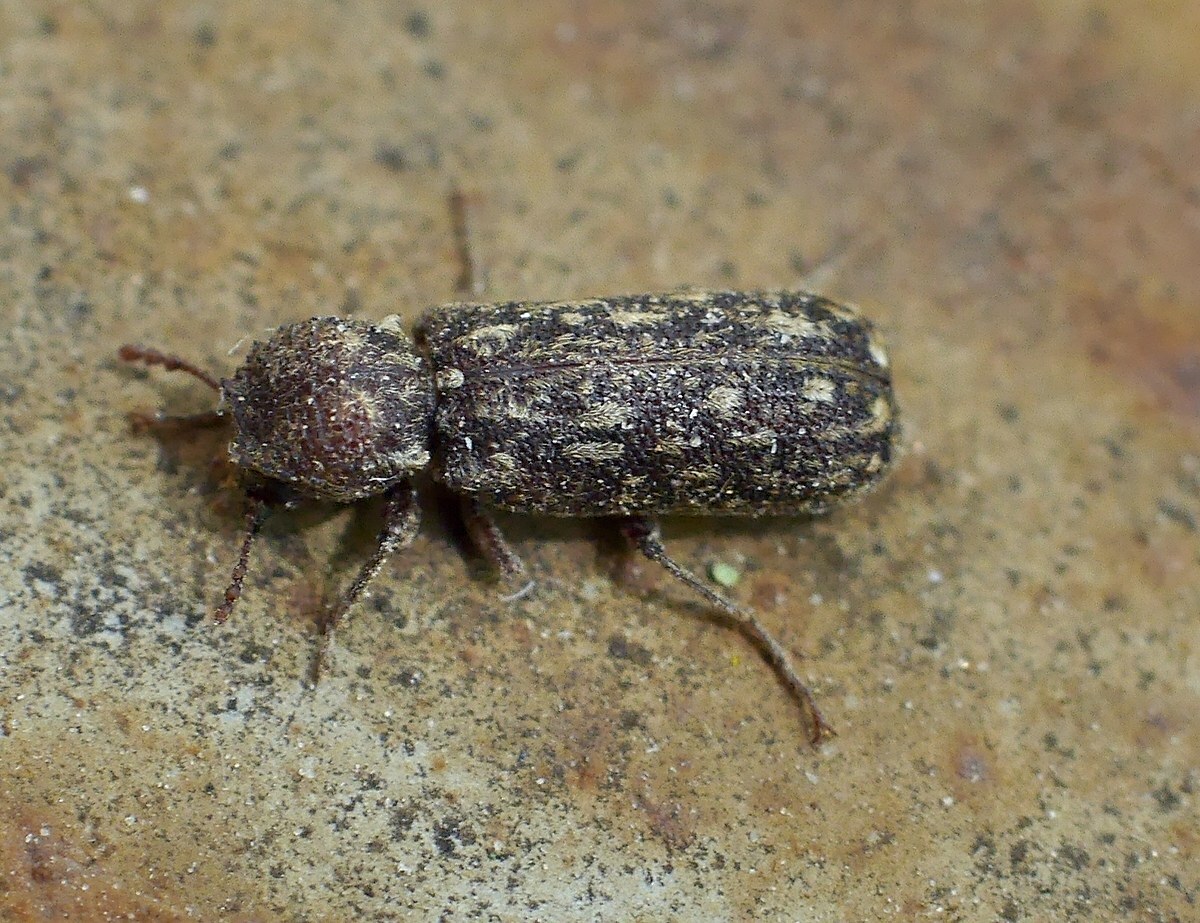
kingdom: Animalia
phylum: Arthropoda
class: Insecta
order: Coleoptera
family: Bostrichidae
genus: Lichenophanes
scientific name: Lichenophanes varius
